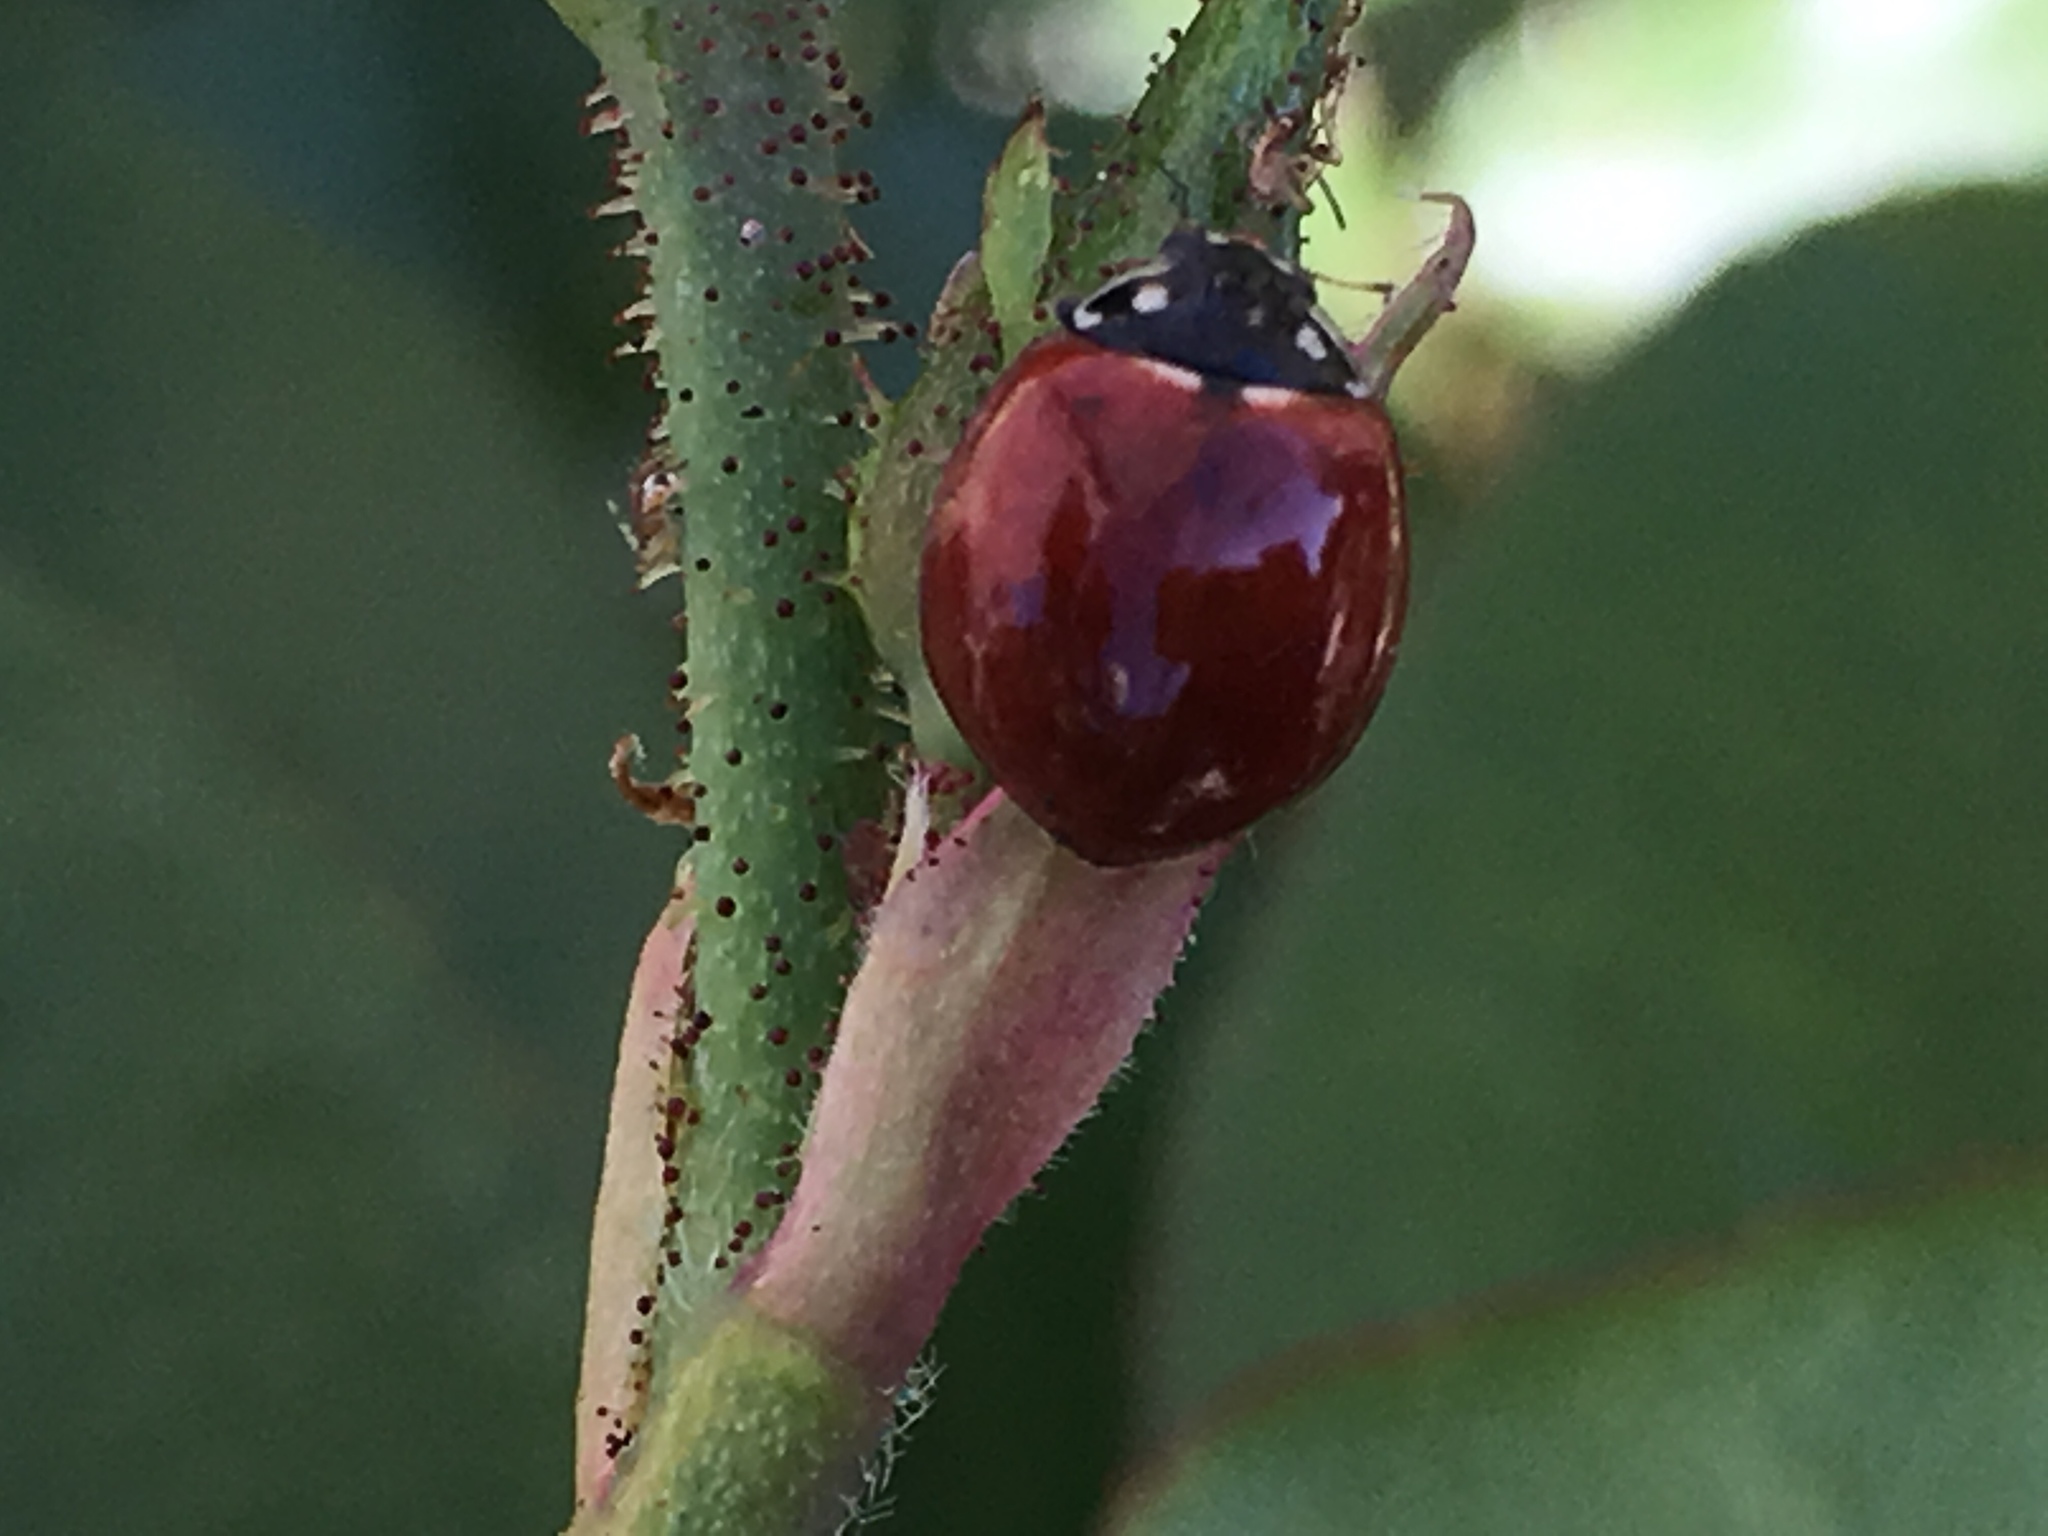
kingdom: Animalia
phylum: Arthropoda
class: Insecta
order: Coleoptera
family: Coccinellidae
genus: Cycloneda
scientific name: Cycloneda sanguinea
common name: Ladybird beetle
